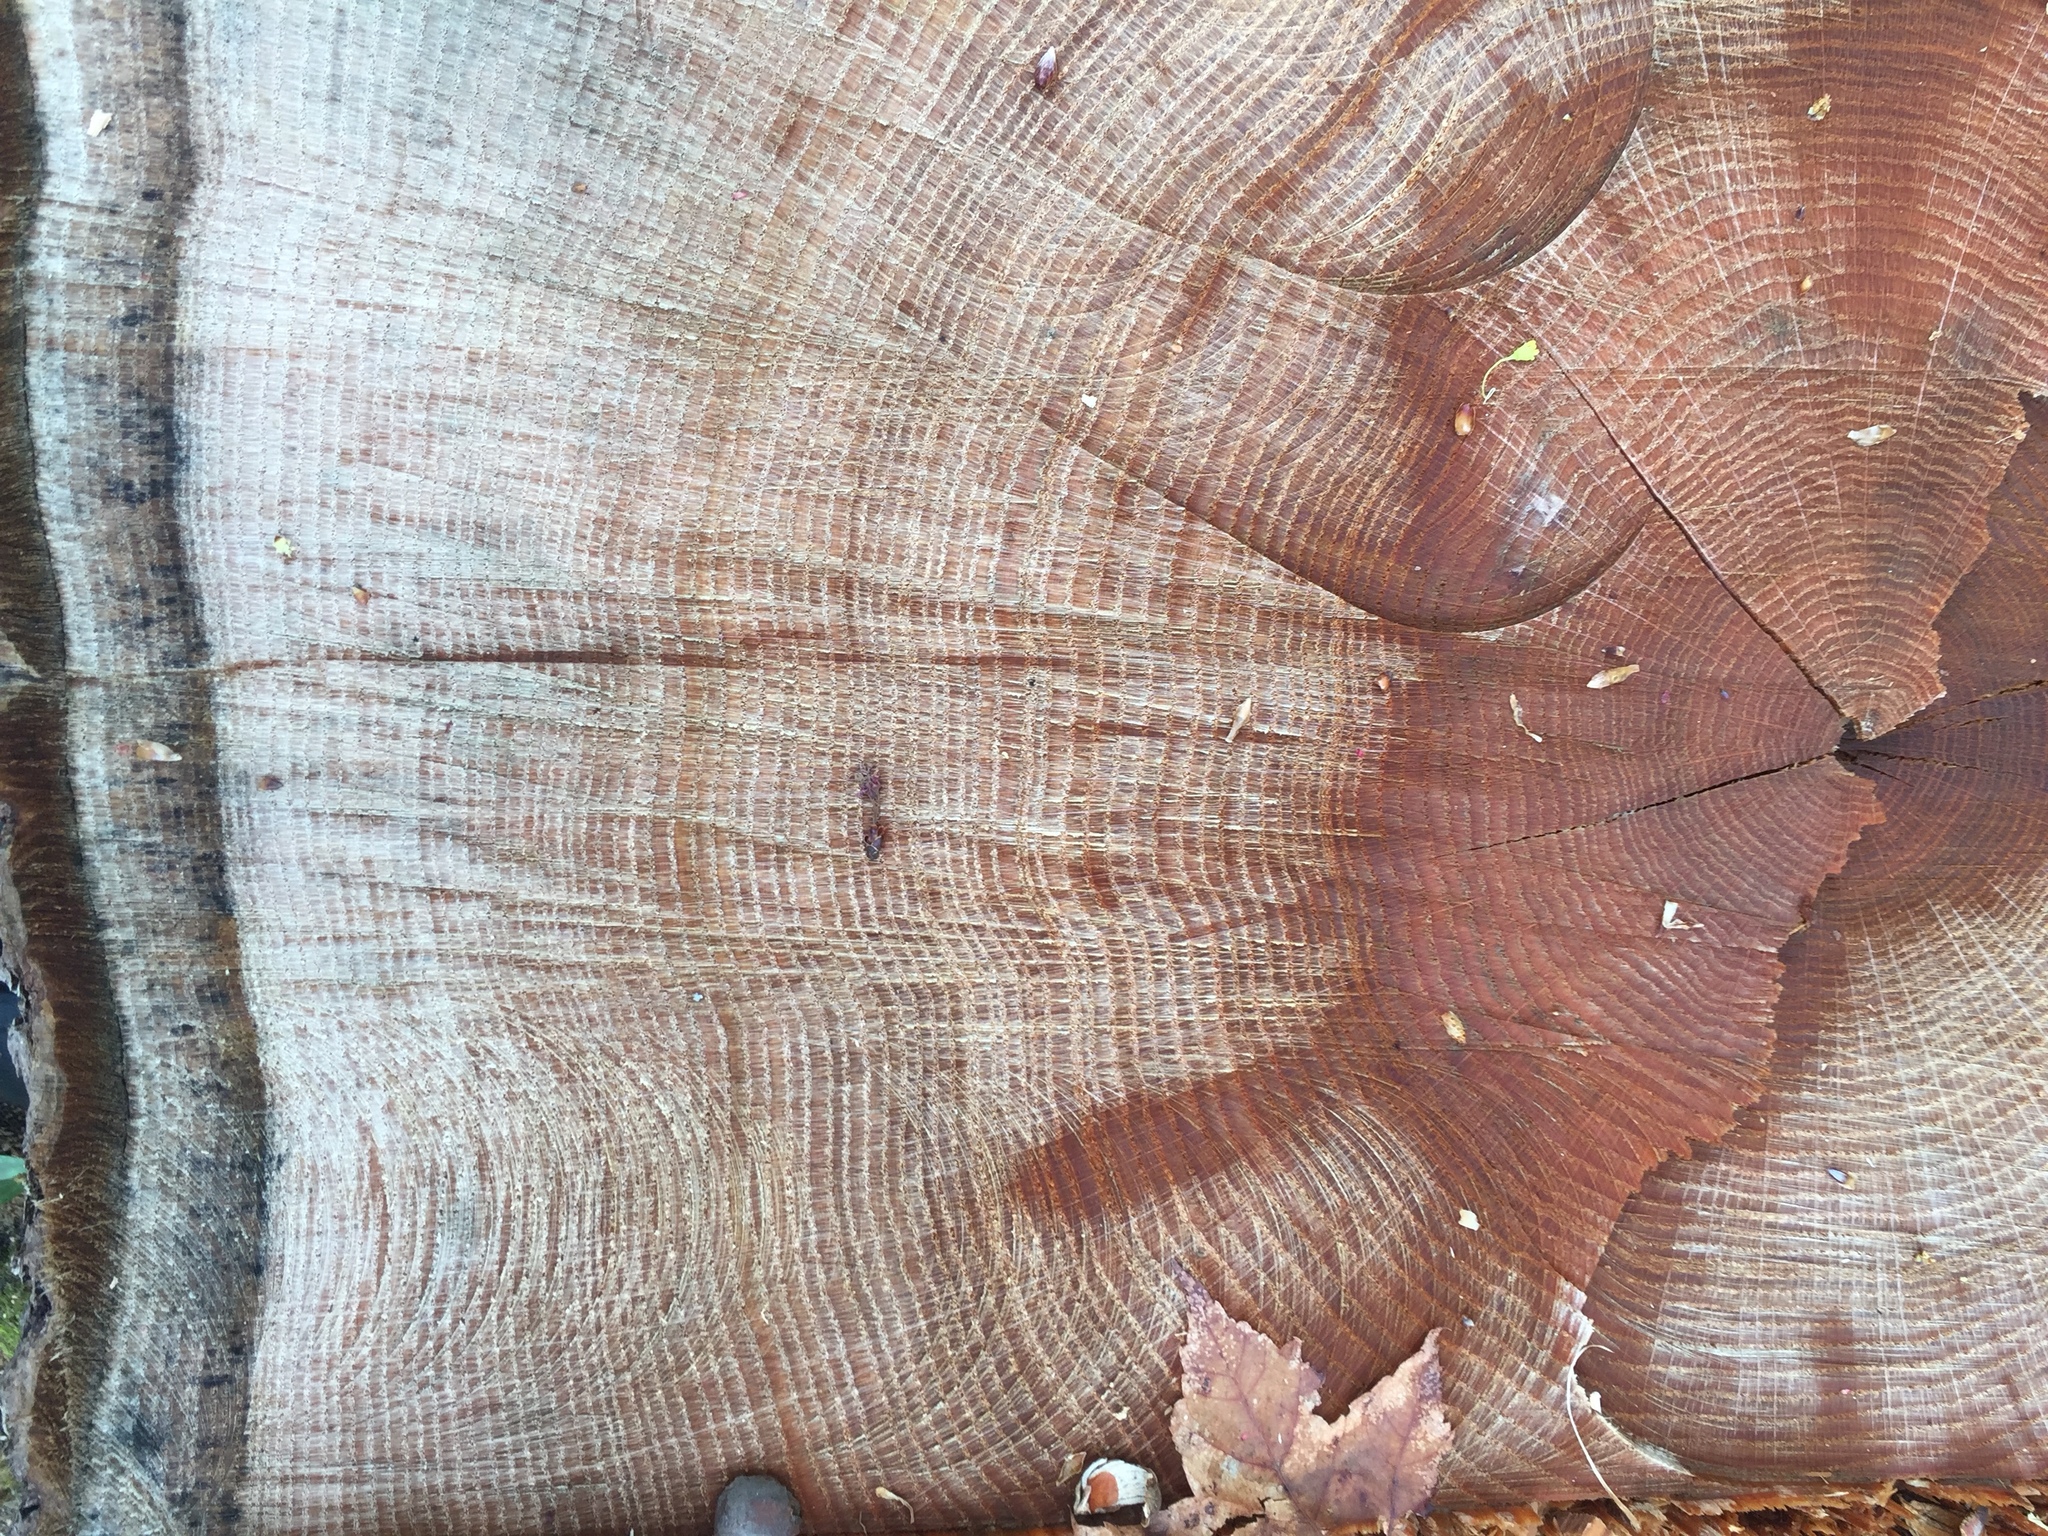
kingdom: Plantae
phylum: Tracheophyta
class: Magnoliopsida
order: Fagales
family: Fagaceae
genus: Quercus
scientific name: Quercus rubra
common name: Red oak
